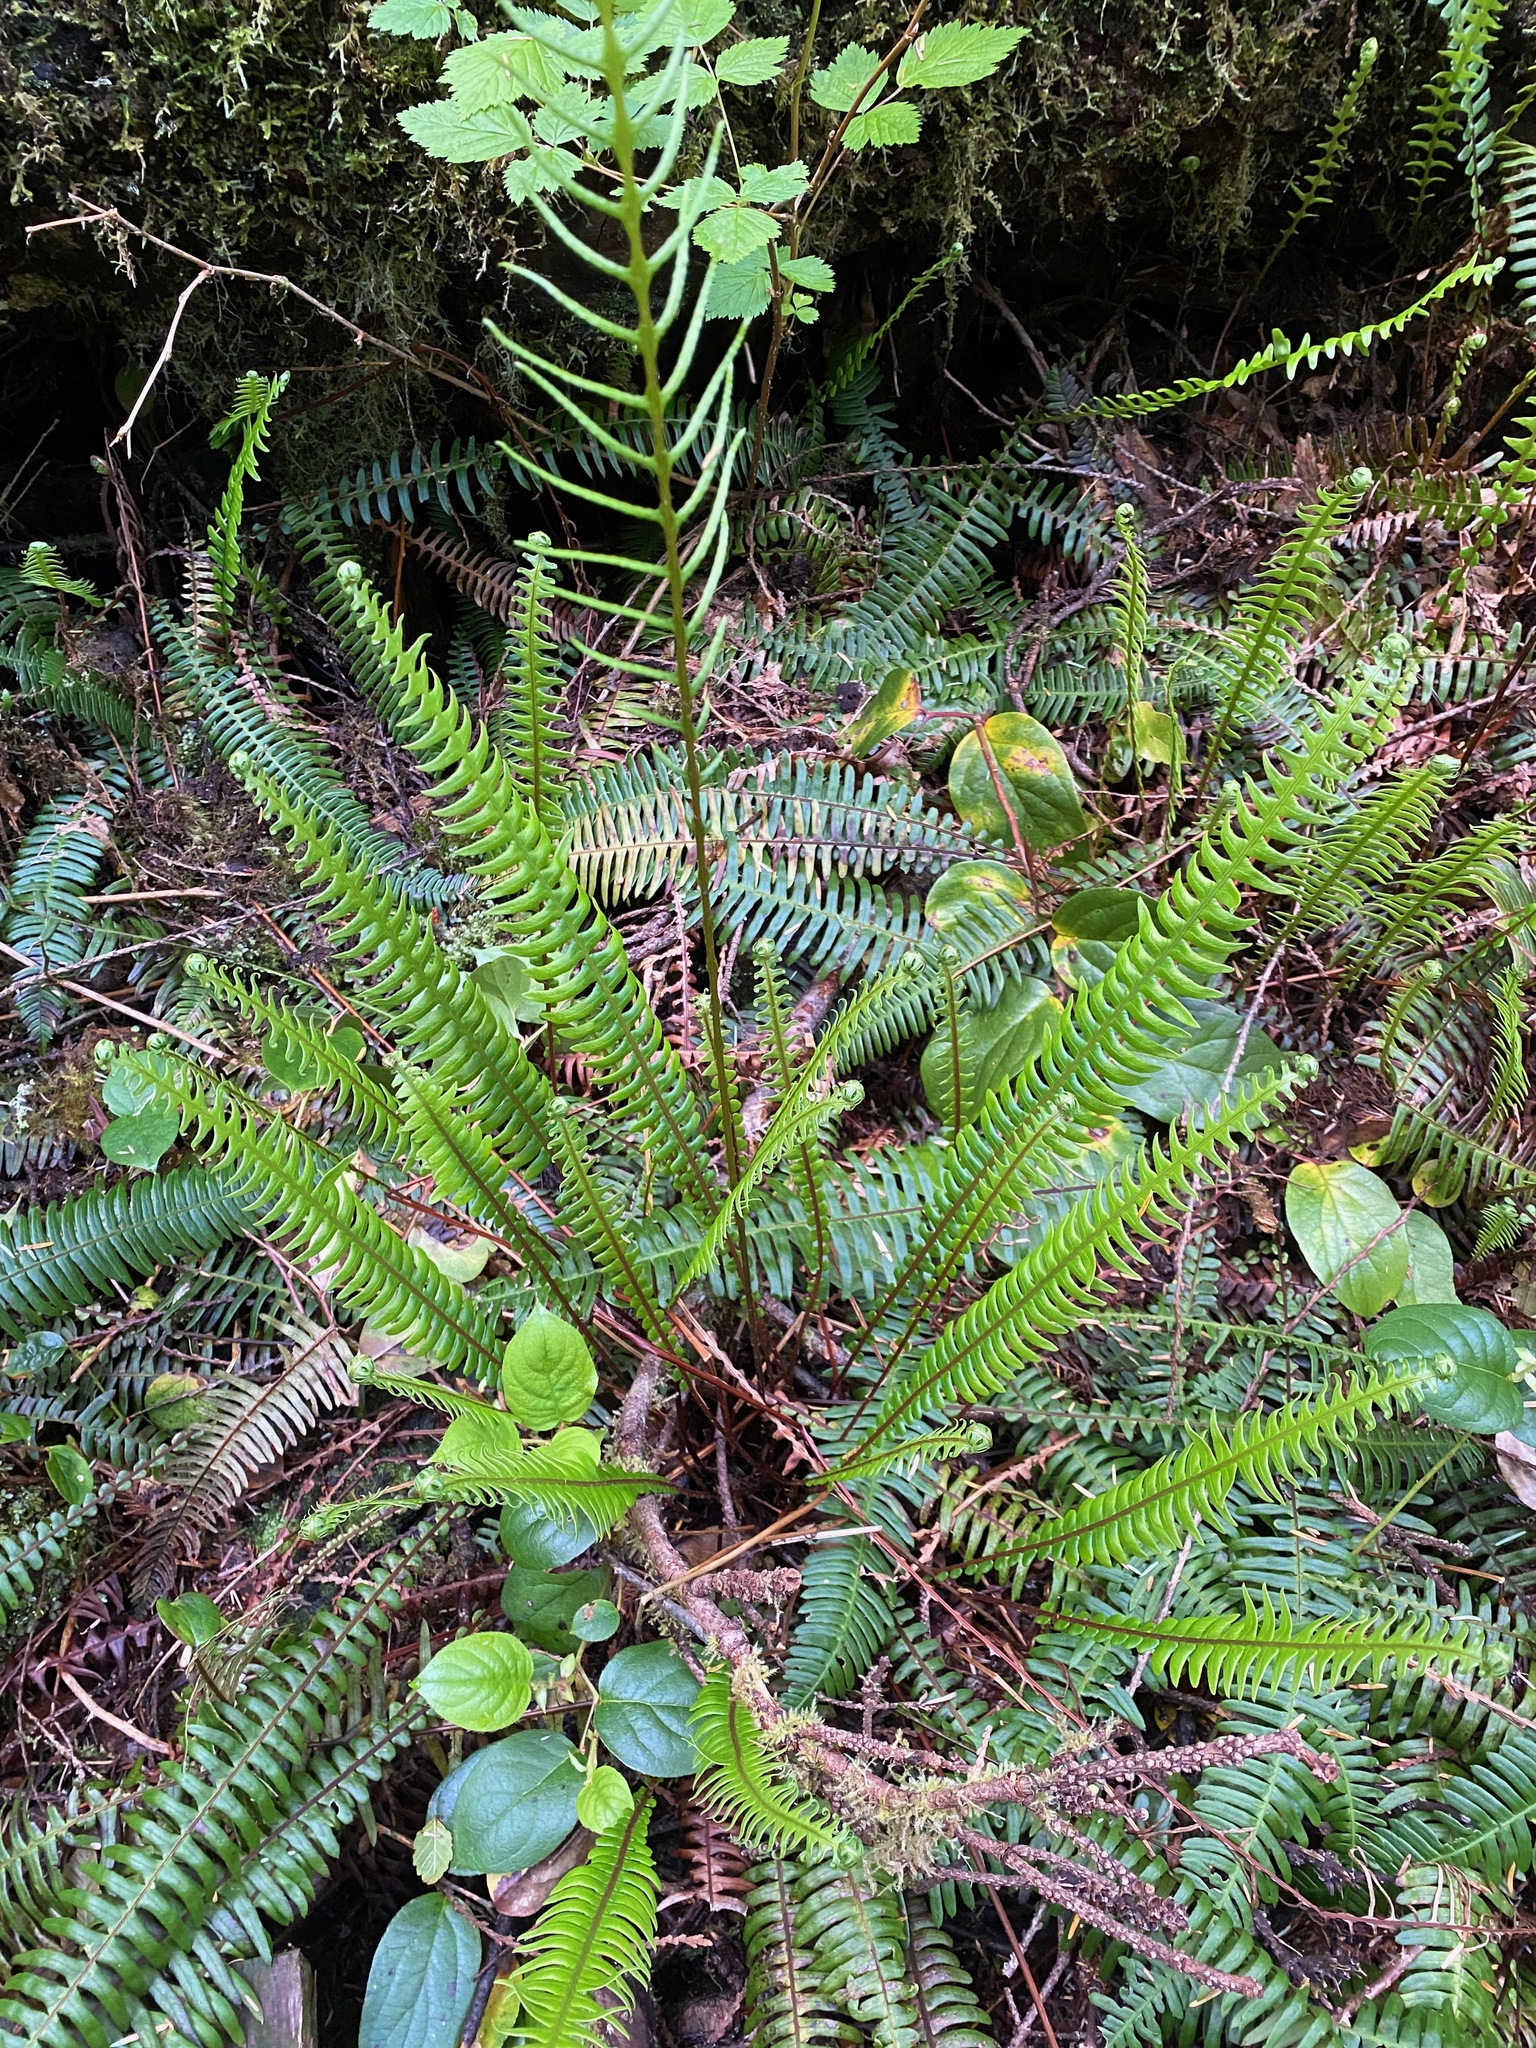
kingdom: Plantae
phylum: Tracheophyta
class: Polypodiopsida
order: Polypodiales
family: Blechnaceae
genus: Struthiopteris
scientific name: Struthiopteris spicant
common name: Deer fern
